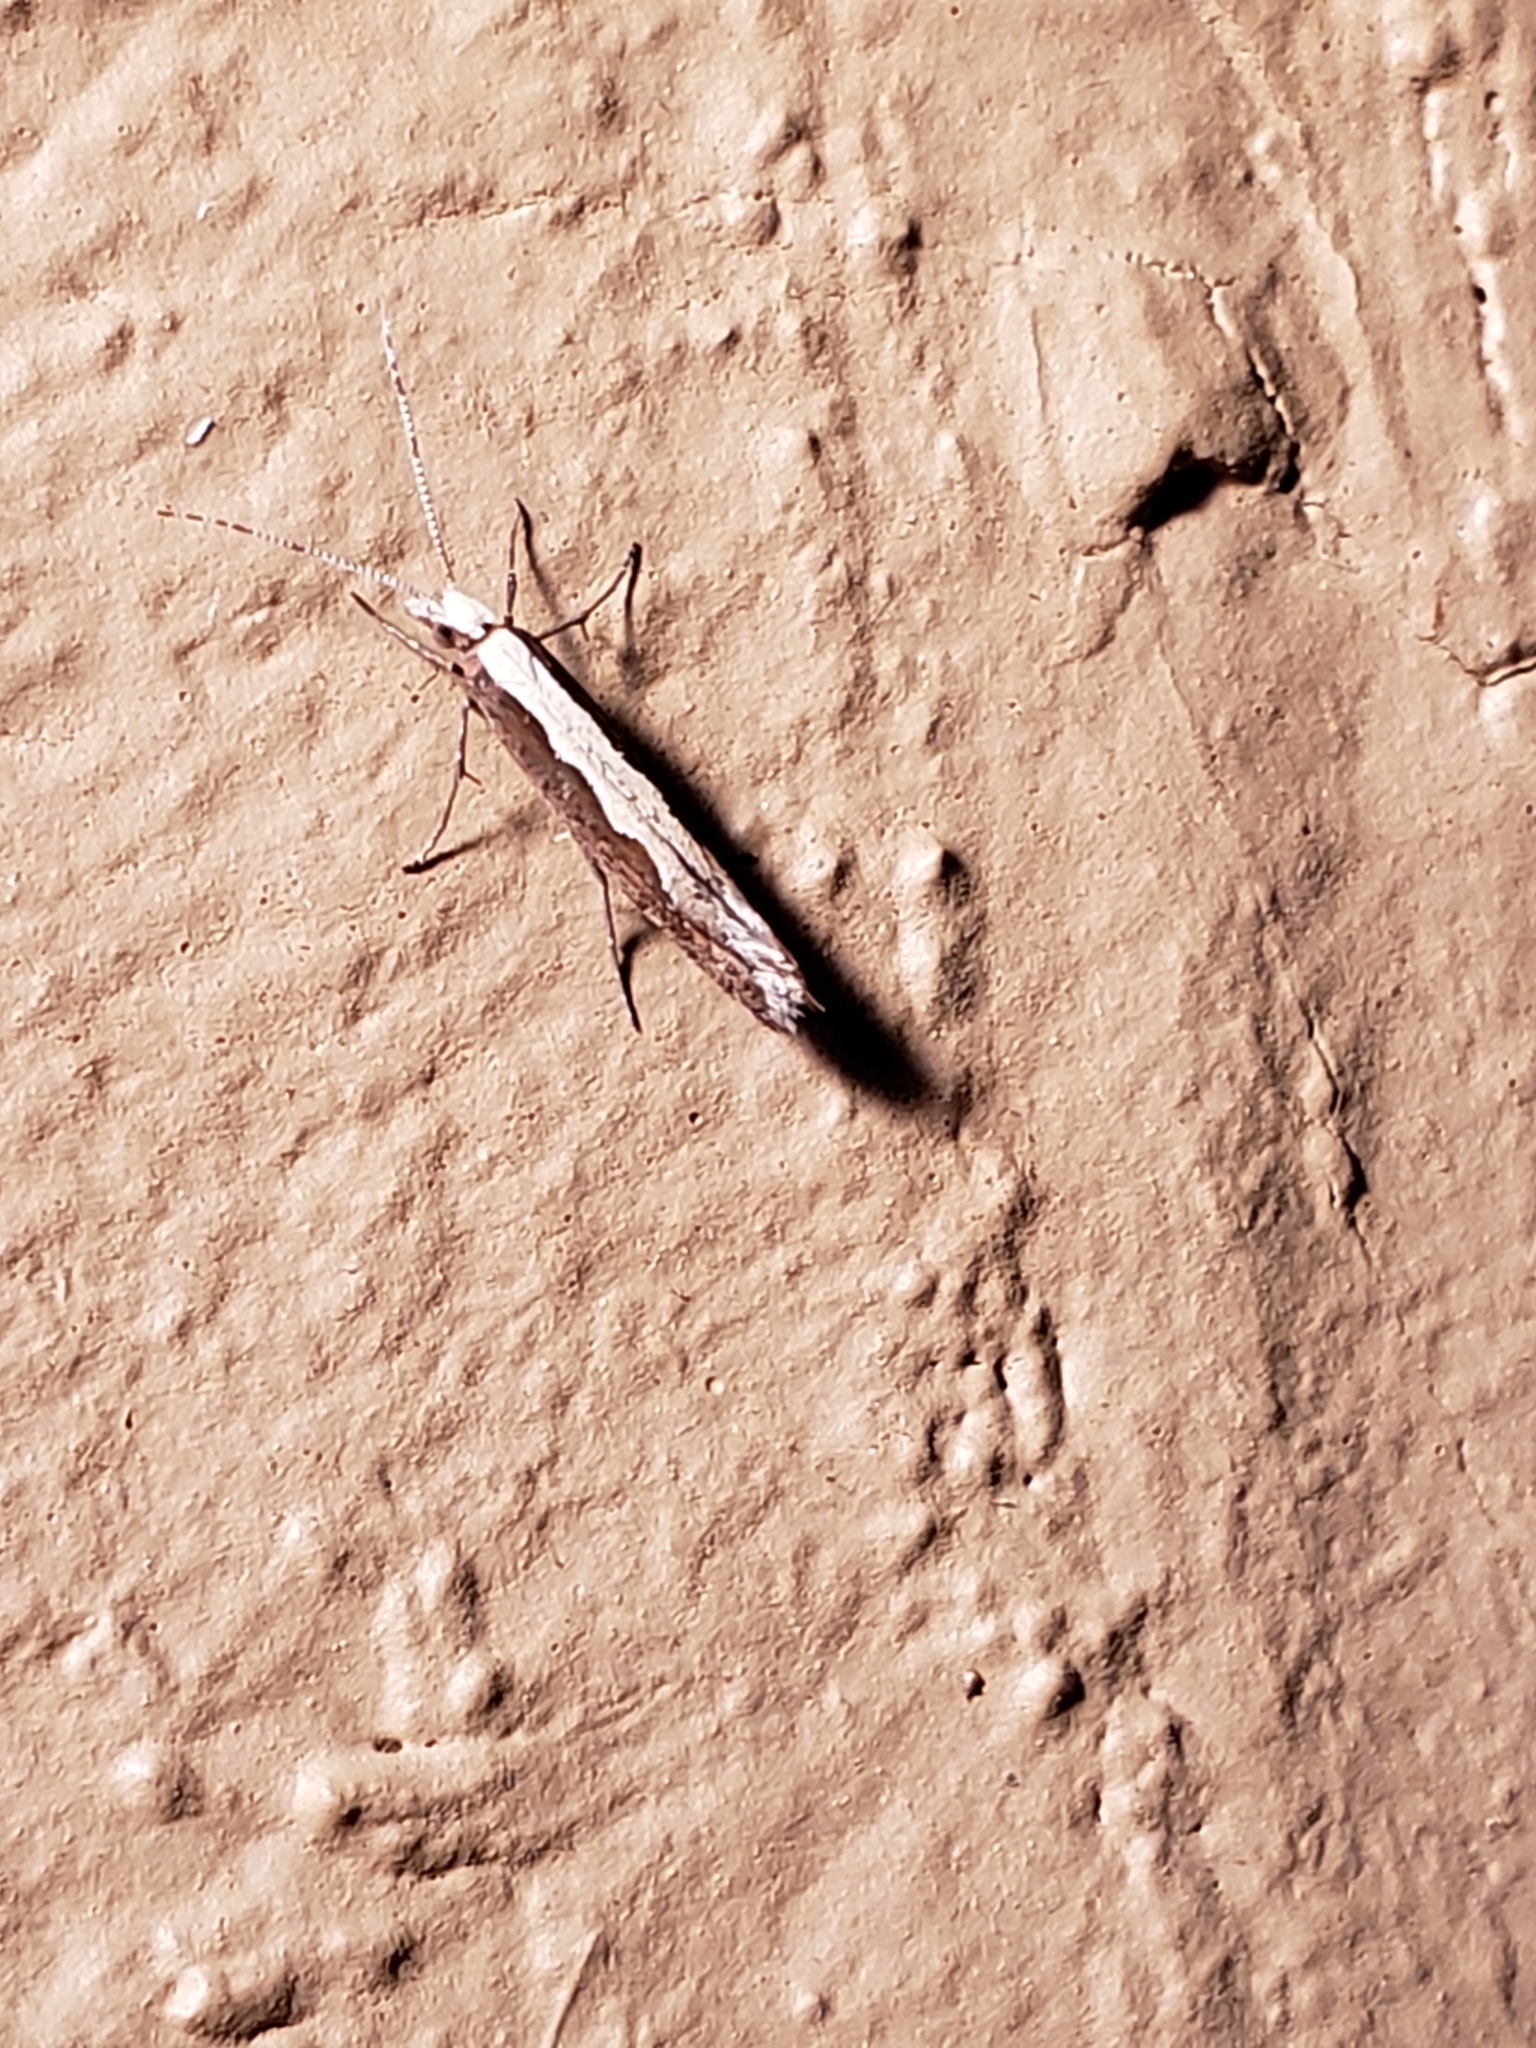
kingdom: Animalia
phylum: Arthropoda
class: Insecta
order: Lepidoptera
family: Plutellidae
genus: Plutella
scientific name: Plutella xylostella
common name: Diamond-back moth
